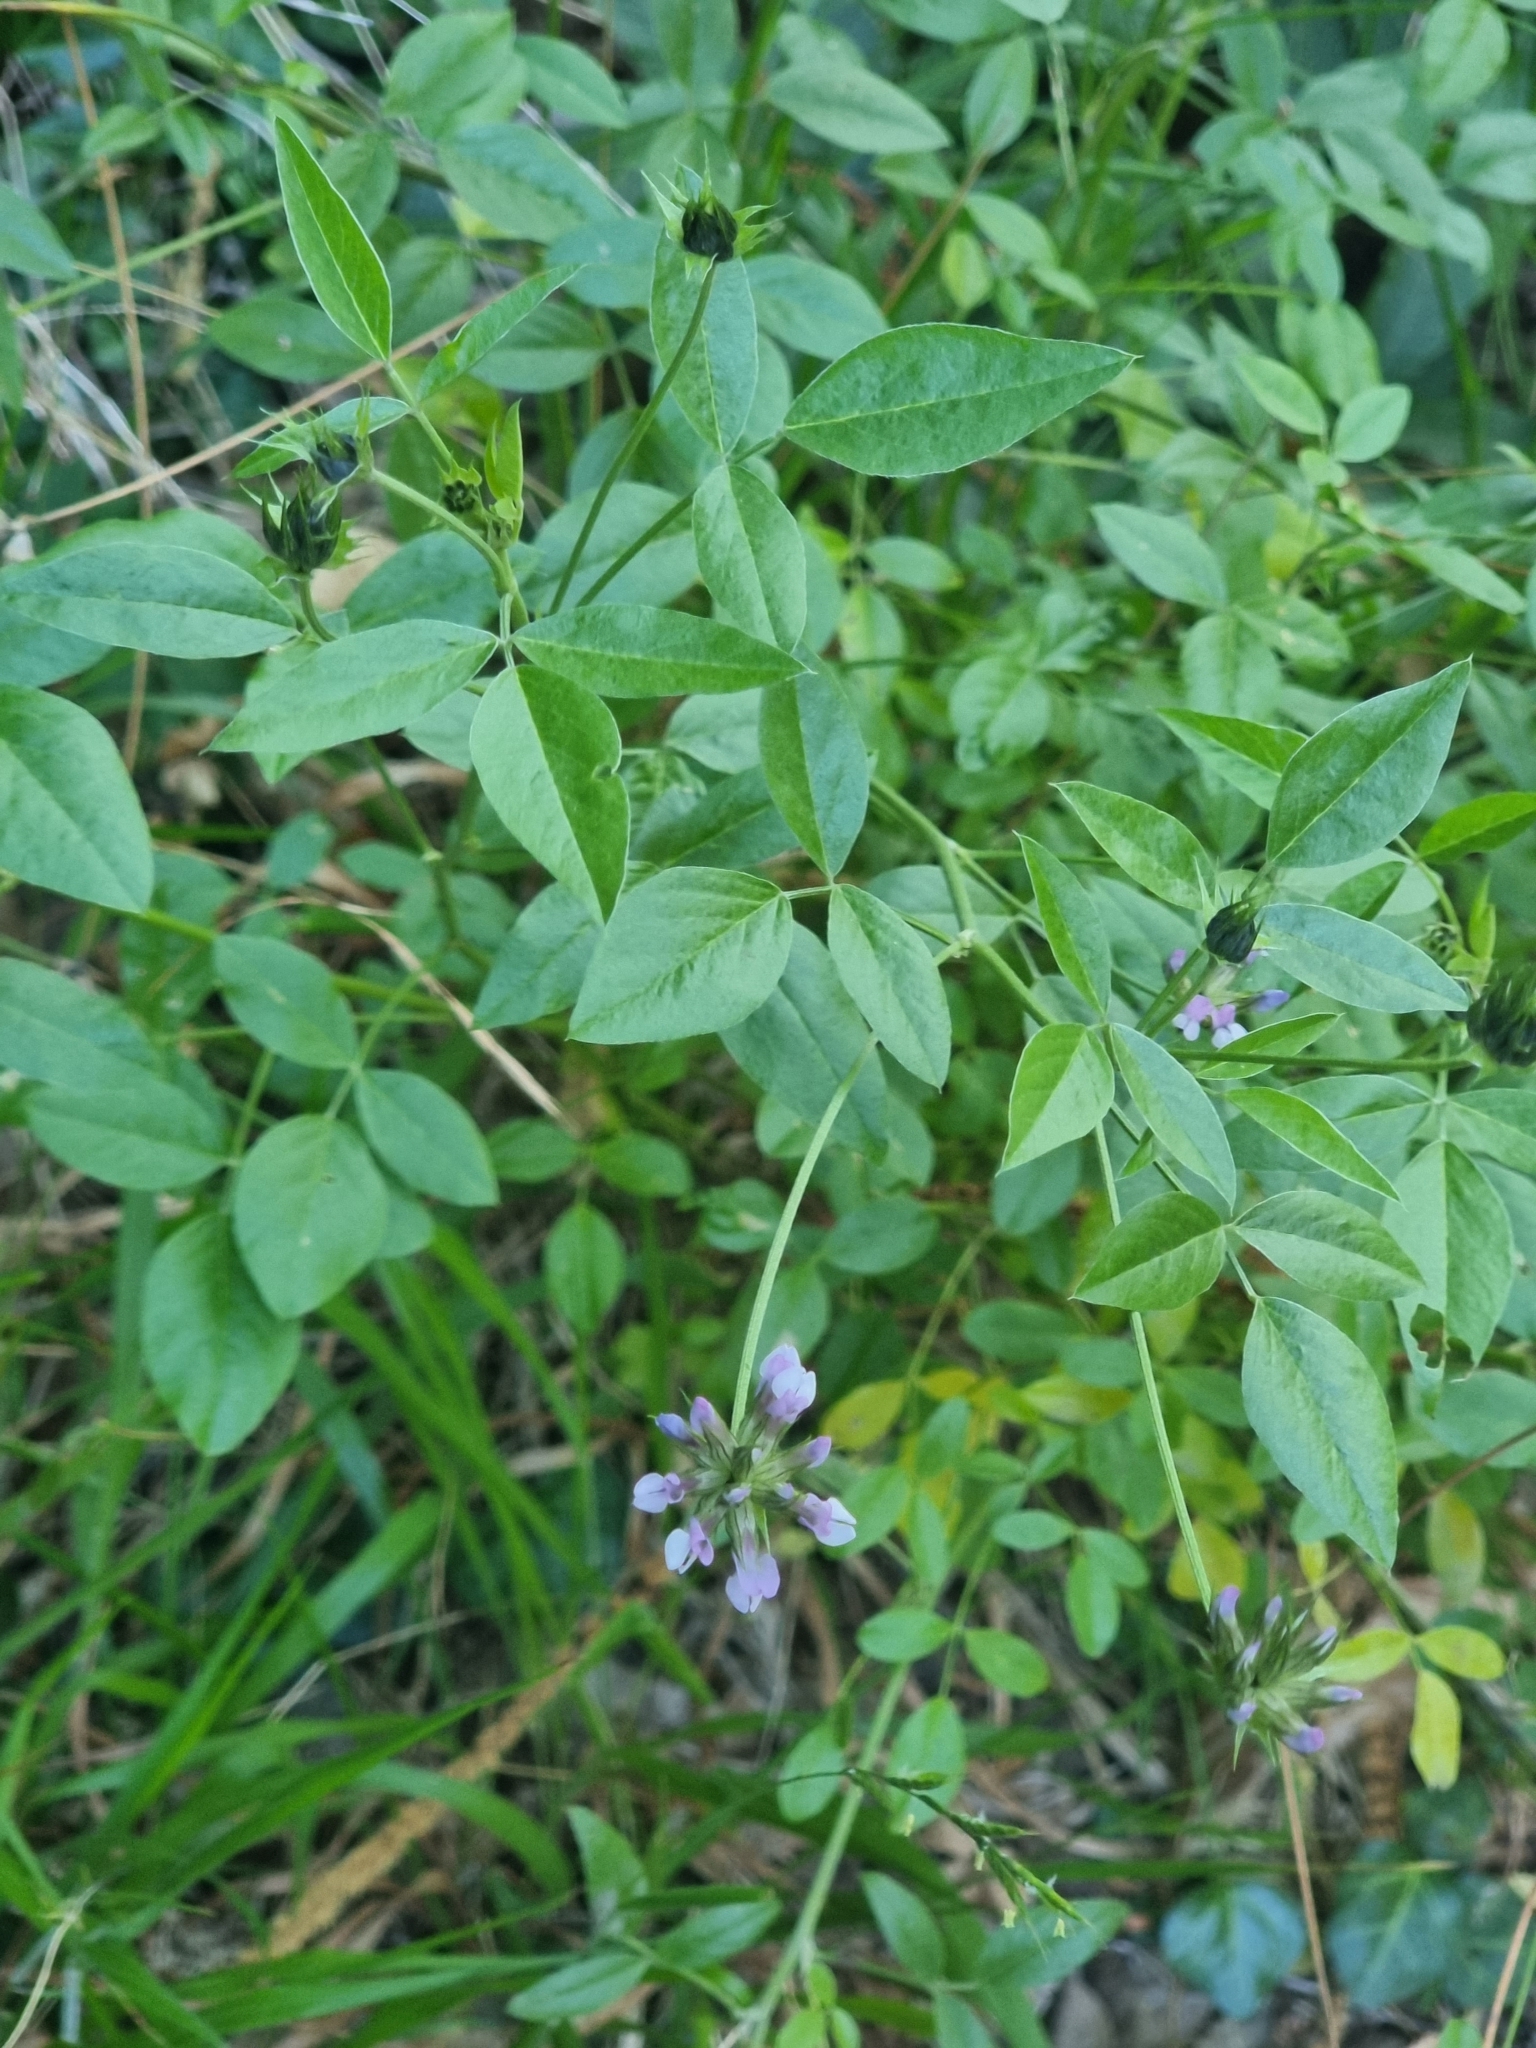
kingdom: Plantae
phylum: Tracheophyta
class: Magnoliopsida
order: Fabales
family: Fabaceae
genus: Bituminaria
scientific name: Bituminaria bituminosa
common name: Arabian pea
